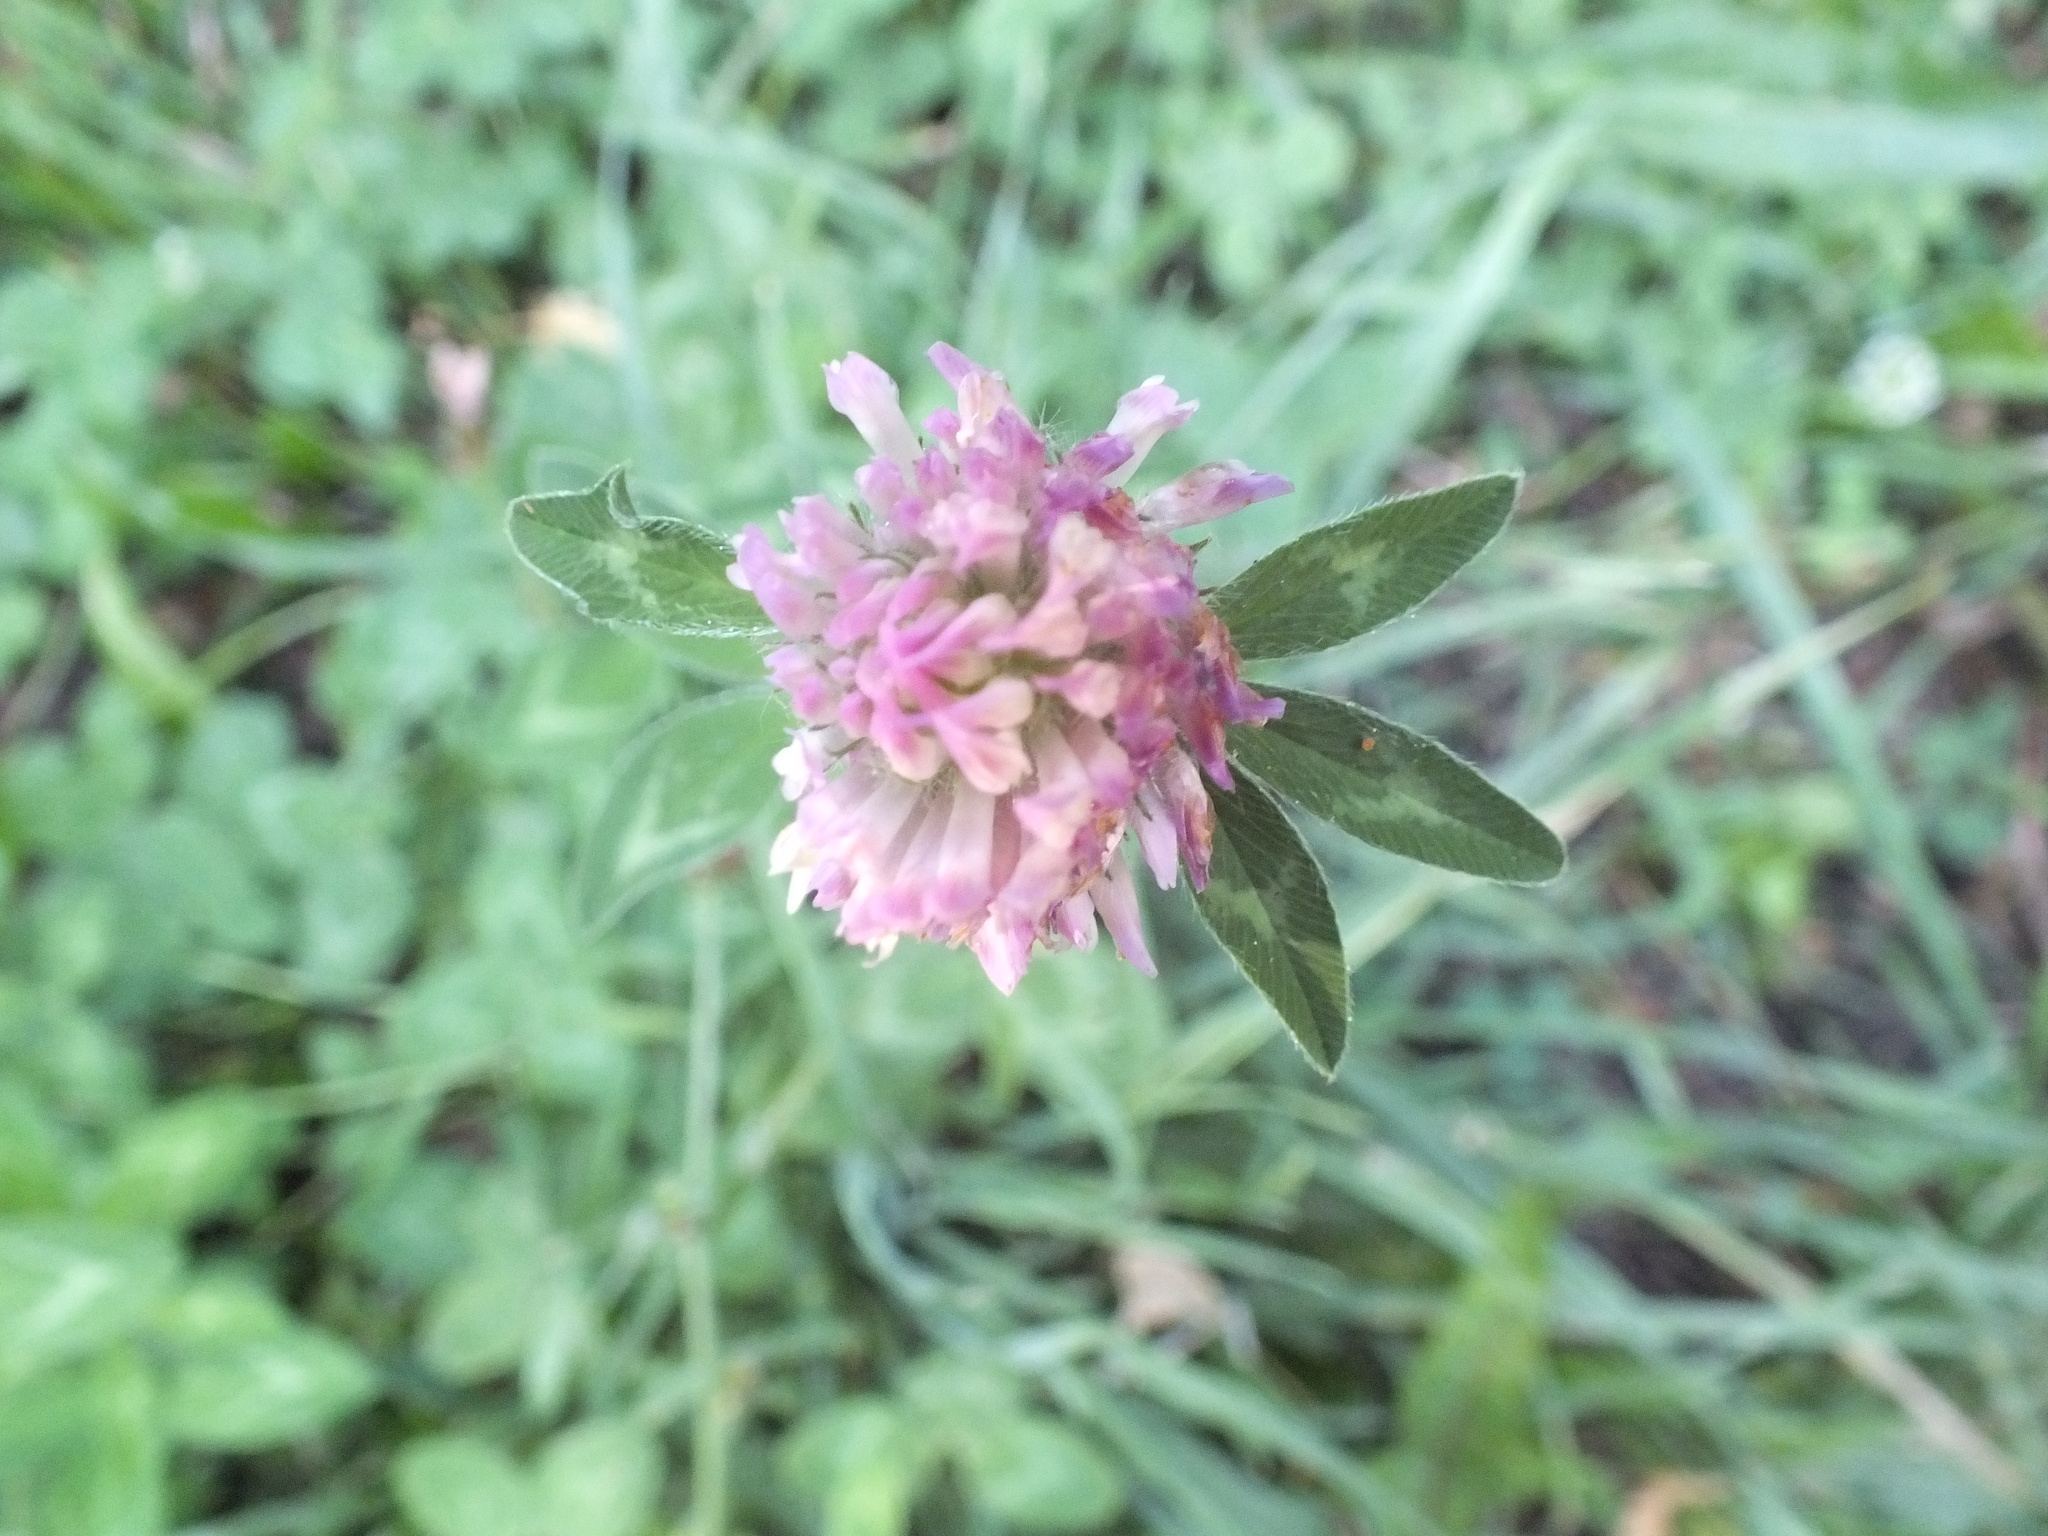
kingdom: Plantae
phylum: Tracheophyta
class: Magnoliopsida
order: Fabales
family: Fabaceae
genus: Trifolium
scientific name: Trifolium pratense
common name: Red clover
